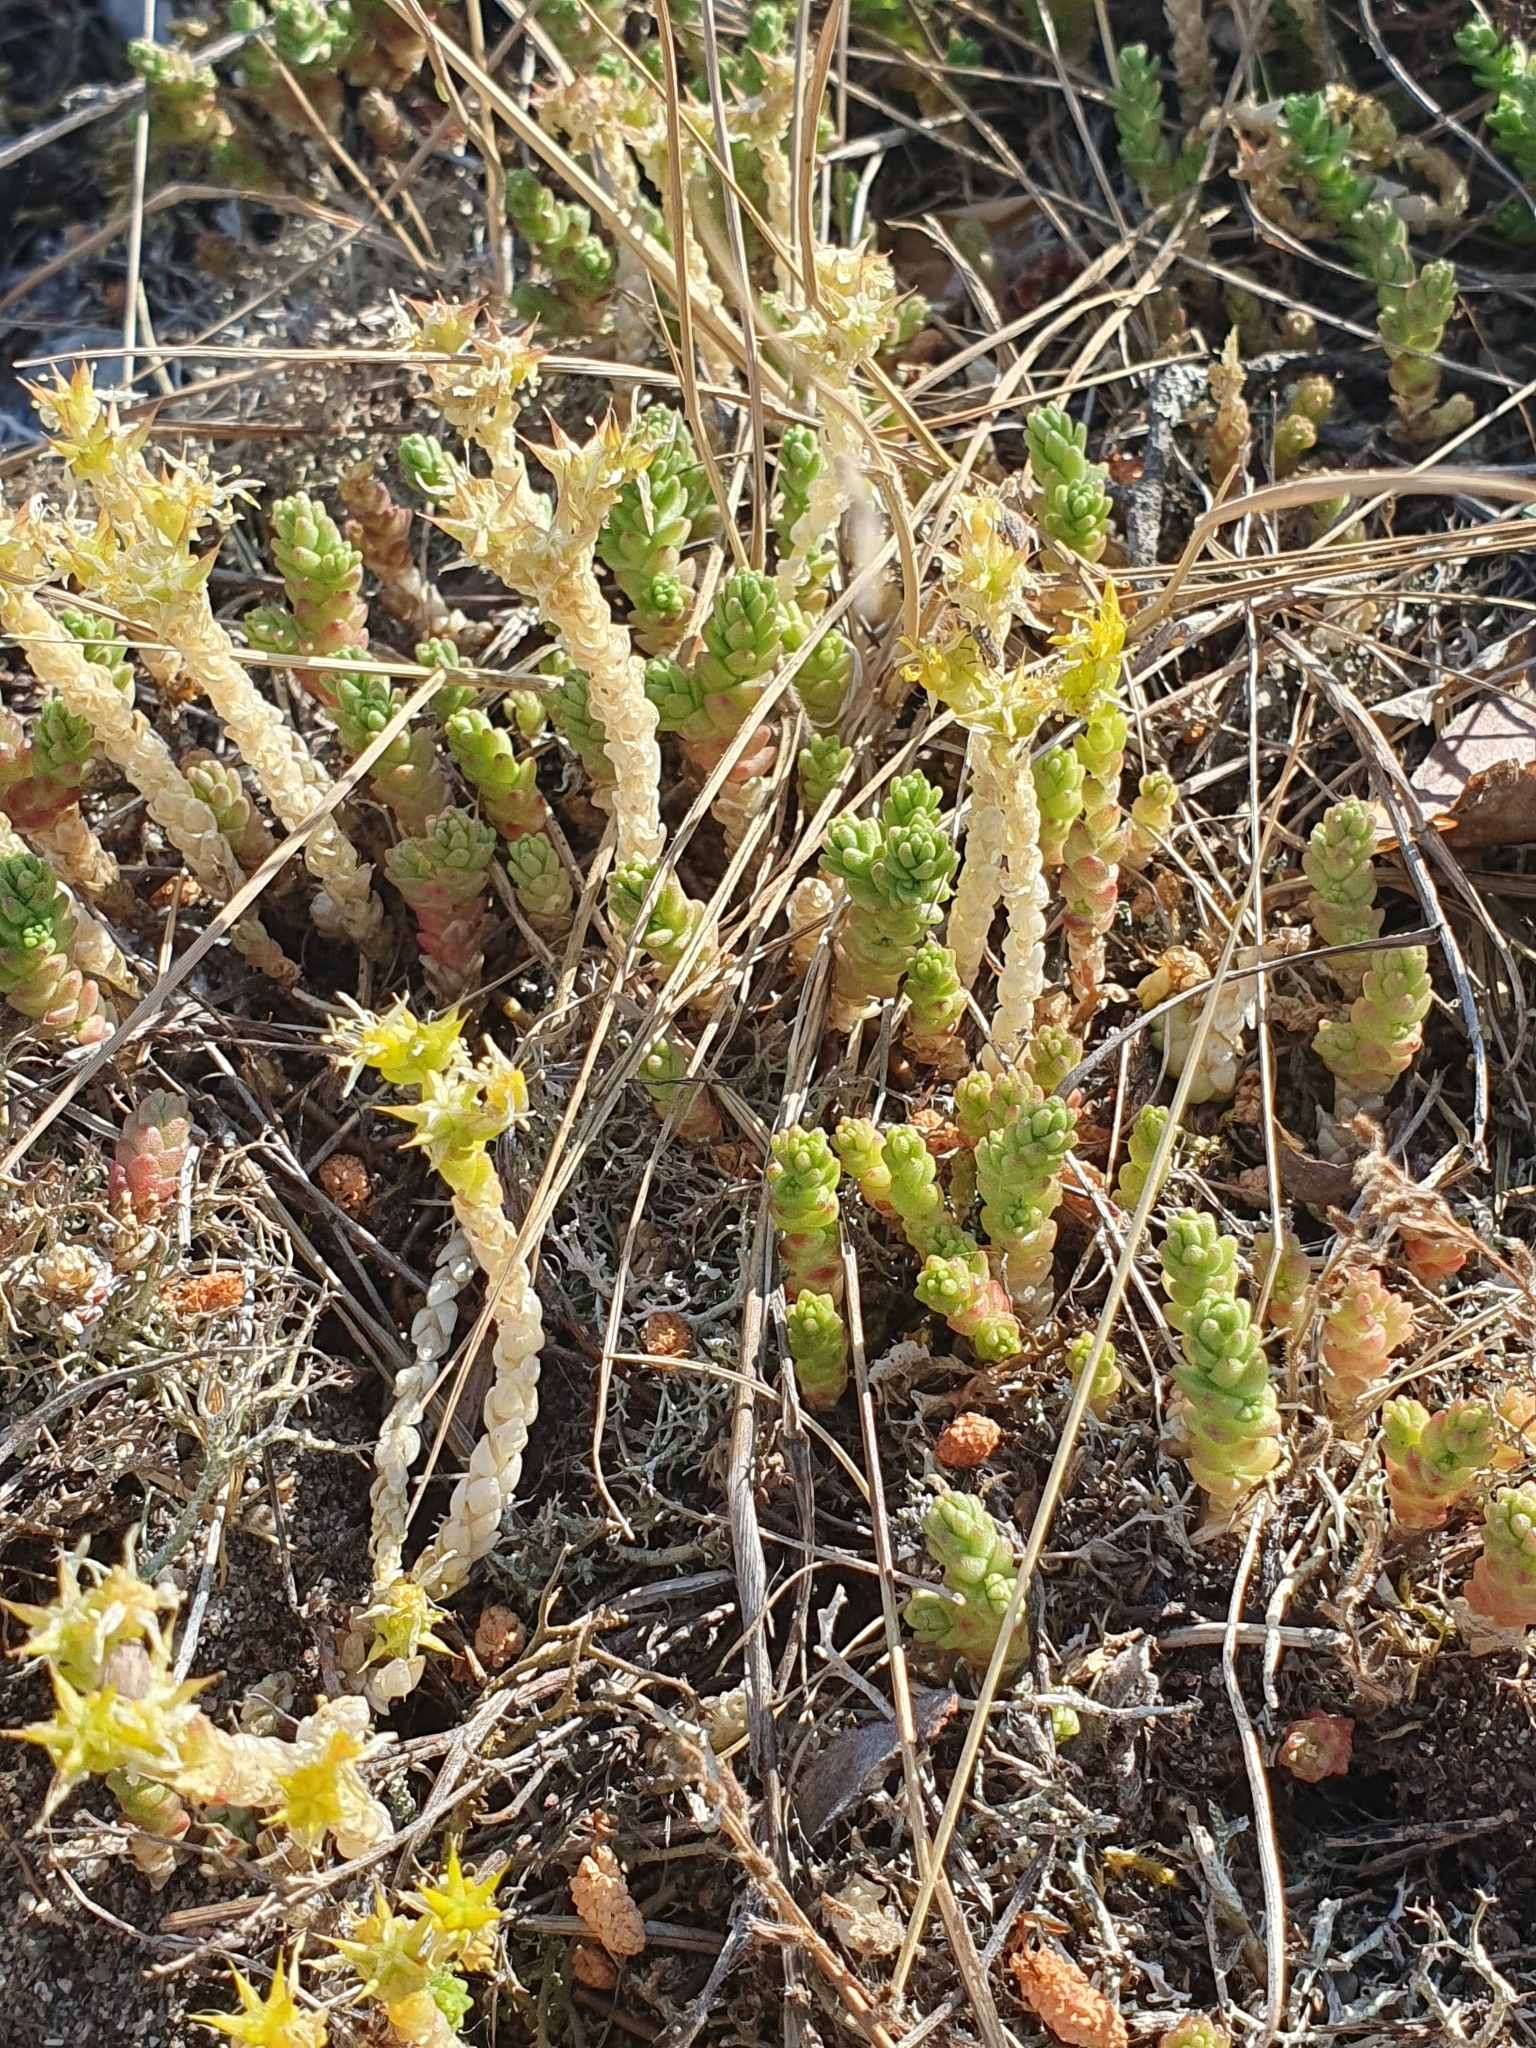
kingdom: Plantae
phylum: Tracheophyta
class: Magnoliopsida
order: Saxifragales
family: Crassulaceae
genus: Sedum
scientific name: Sedum acre
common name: Biting stonecrop
